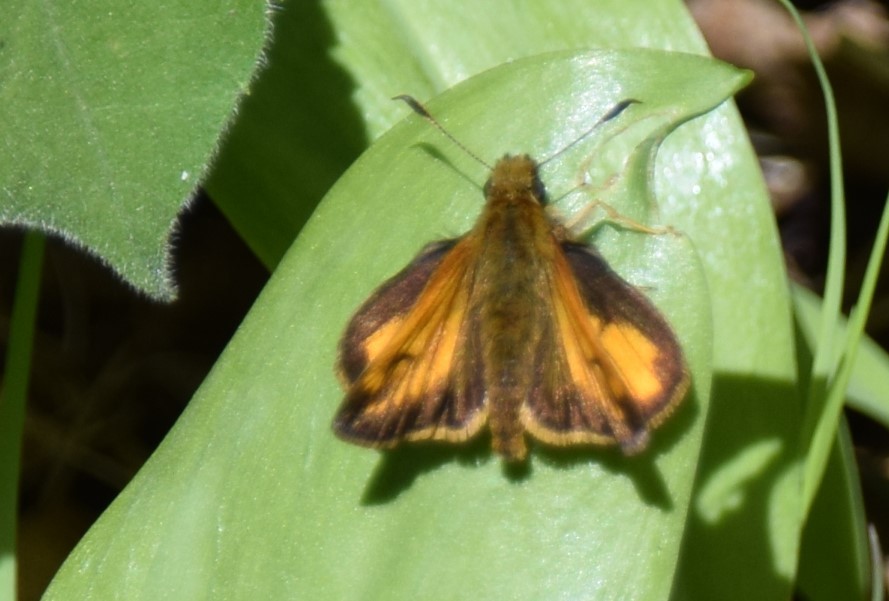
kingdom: Animalia
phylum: Arthropoda
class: Insecta
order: Lepidoptera
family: Hesperiidae
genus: Lon
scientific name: Lon hobomok
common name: Hobomok skipper
